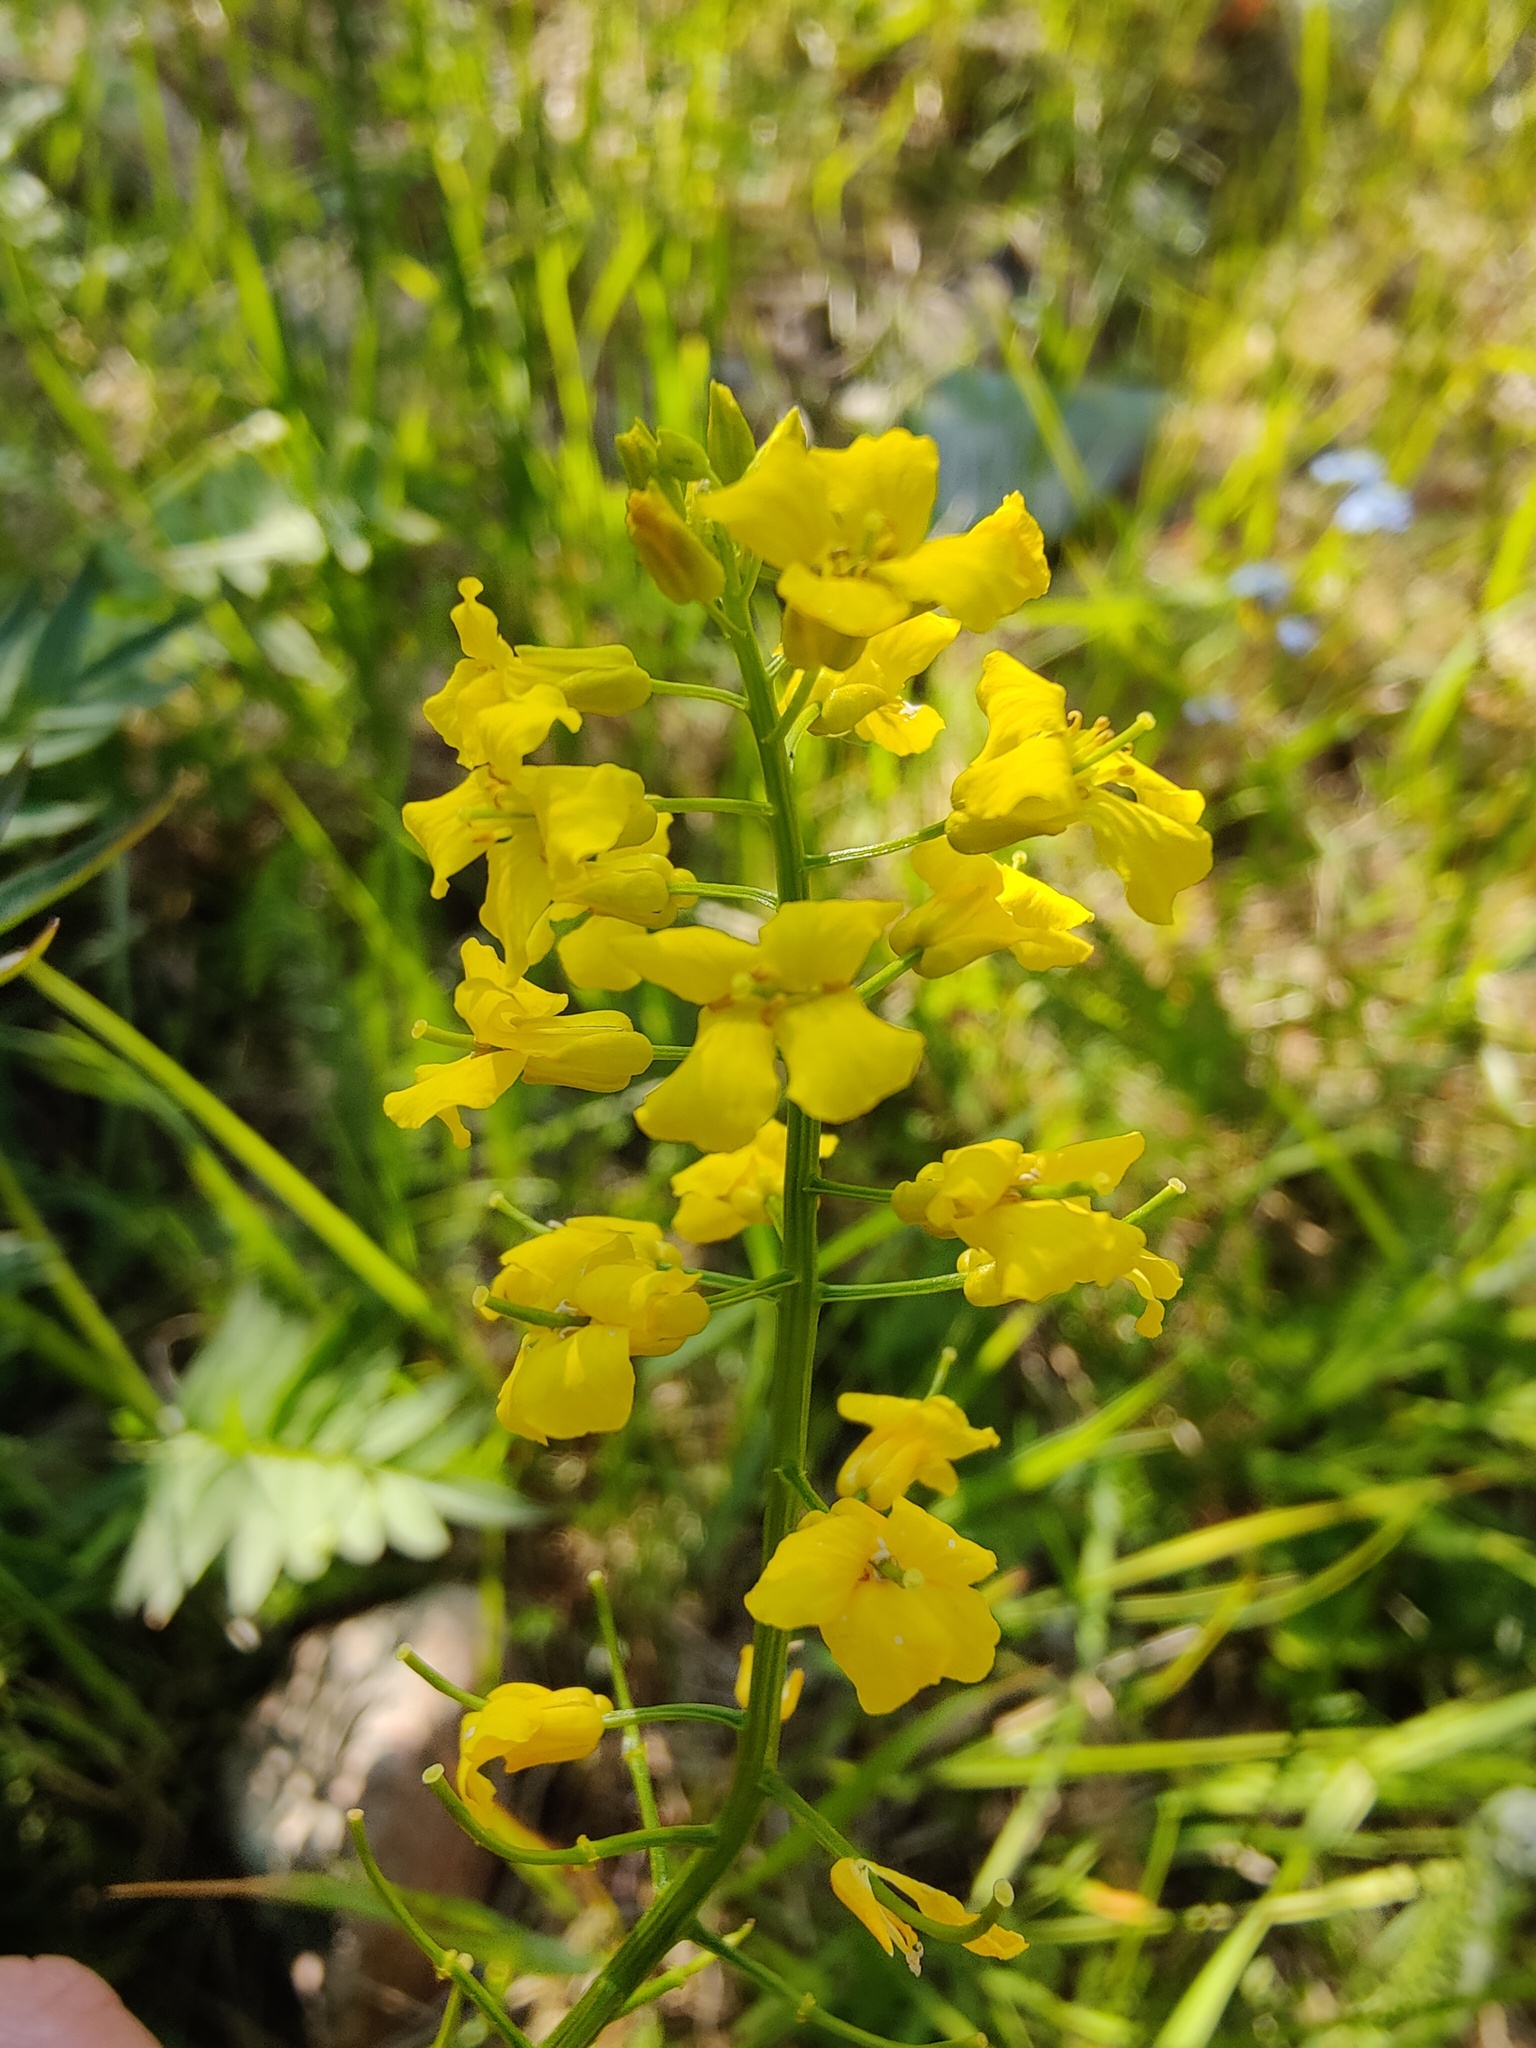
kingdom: Plantae
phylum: Tracheophyta
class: Magnoliopsida
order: Brassicales
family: Brassicaceae
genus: Barbarea
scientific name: Barbarea vulgaris
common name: Cressy-greens
